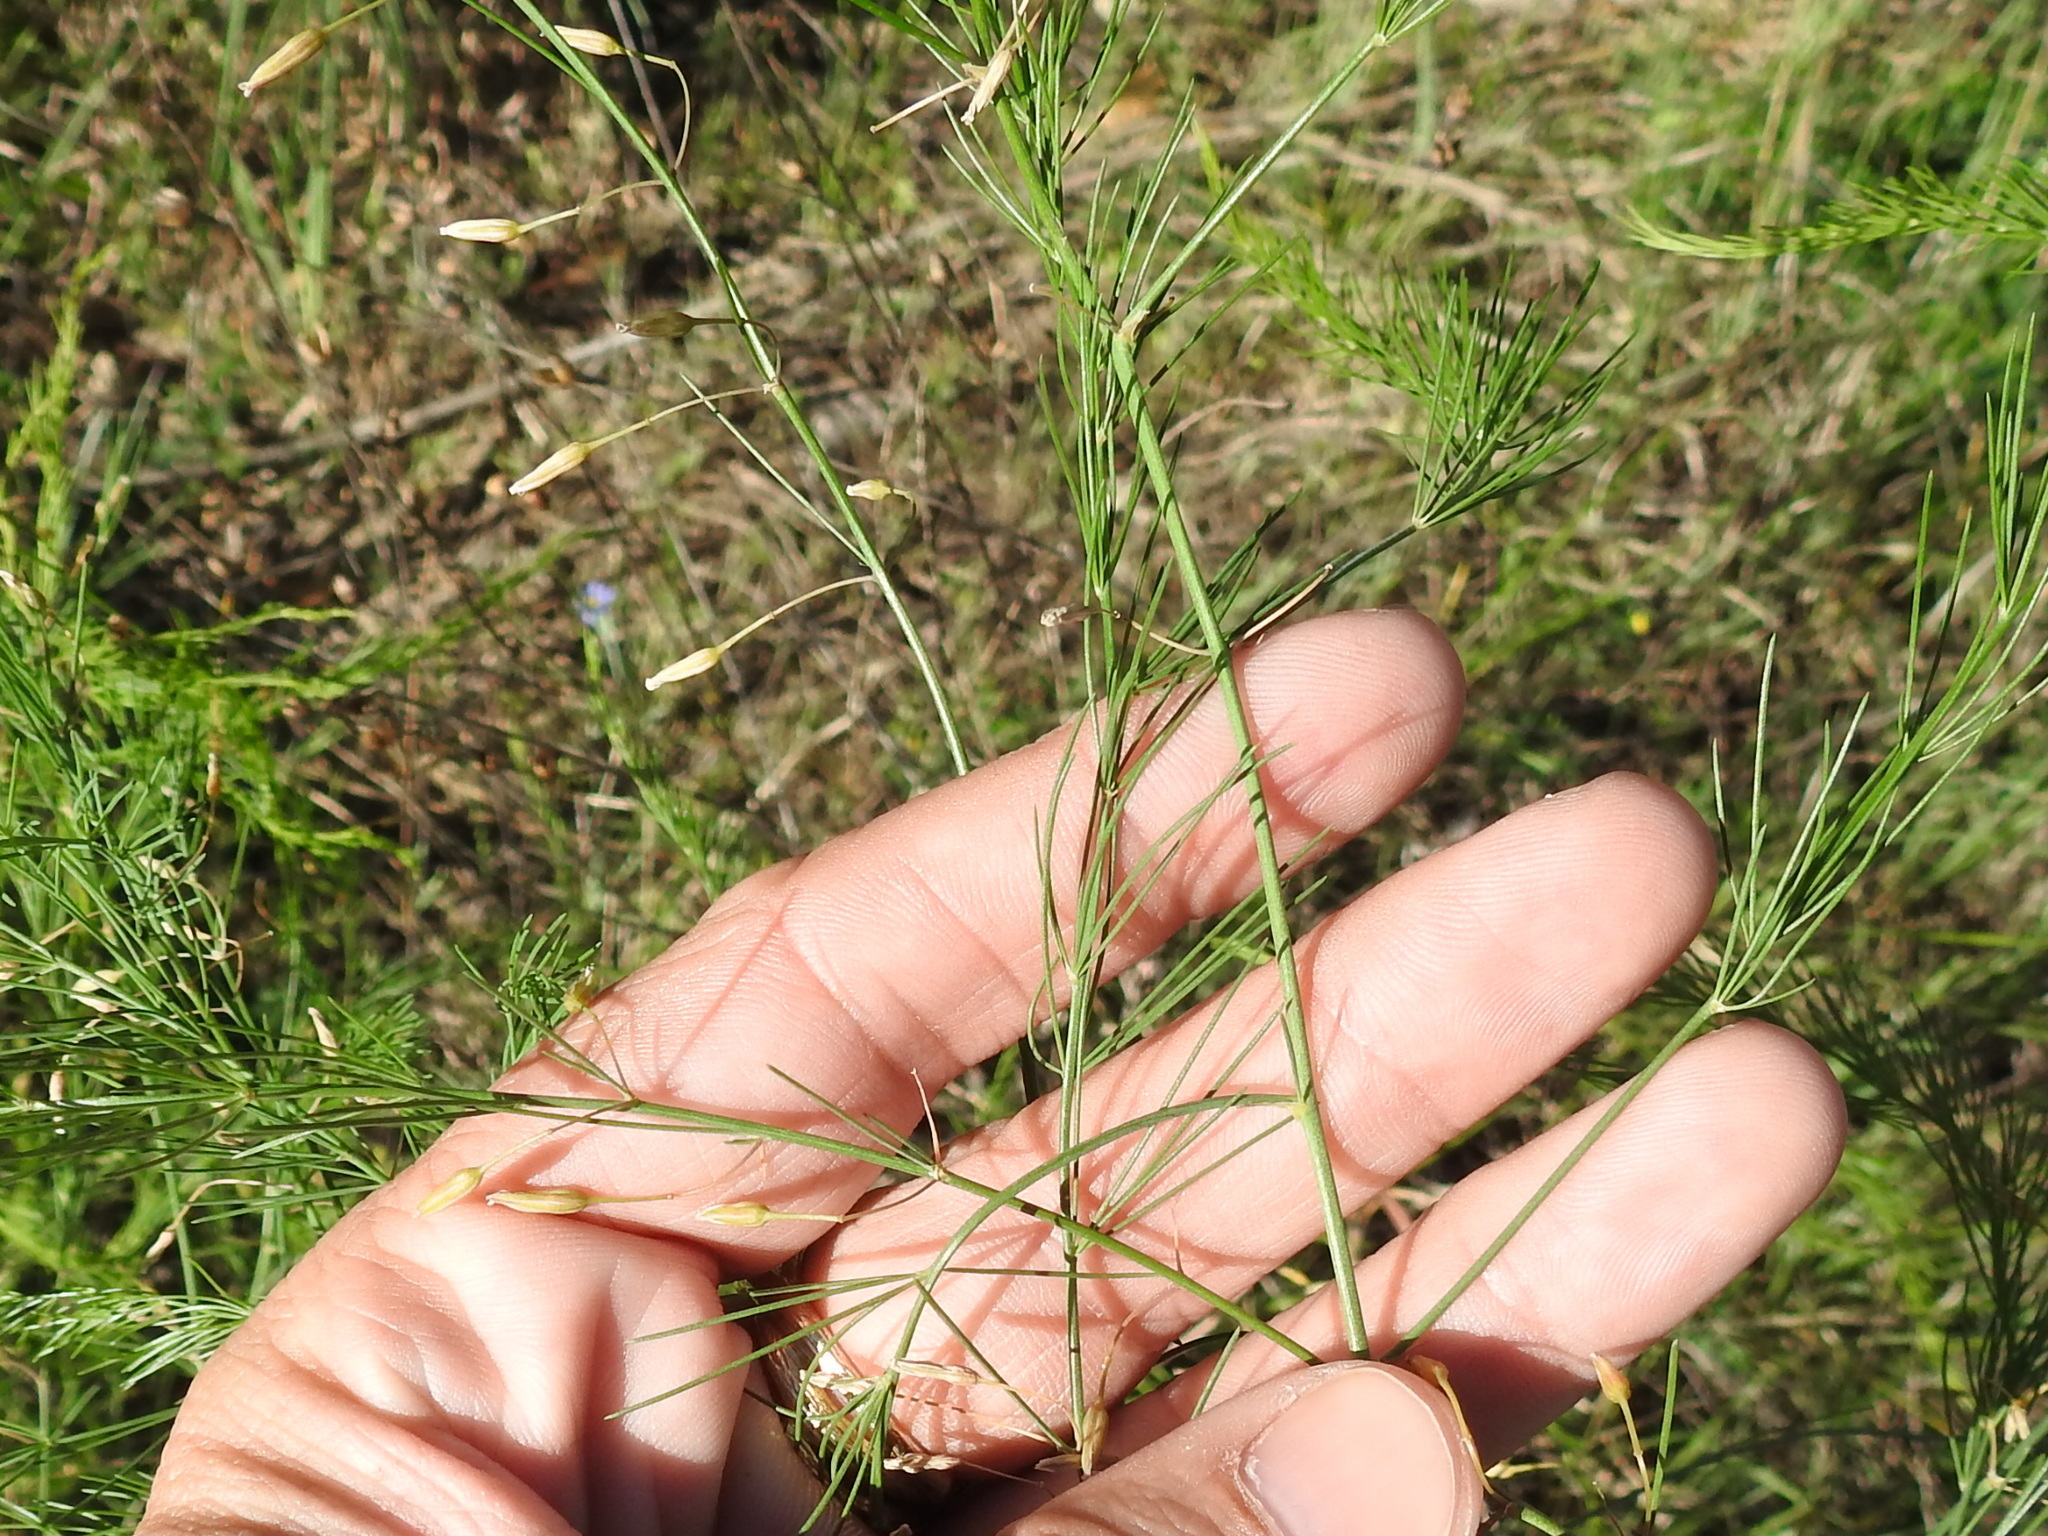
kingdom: Plantae
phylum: Tracheophyta
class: Liliopsida
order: Asparagales
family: Asparagaceae
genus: Asparagus
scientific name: Asparagus officinalis
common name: Garden asparagus
